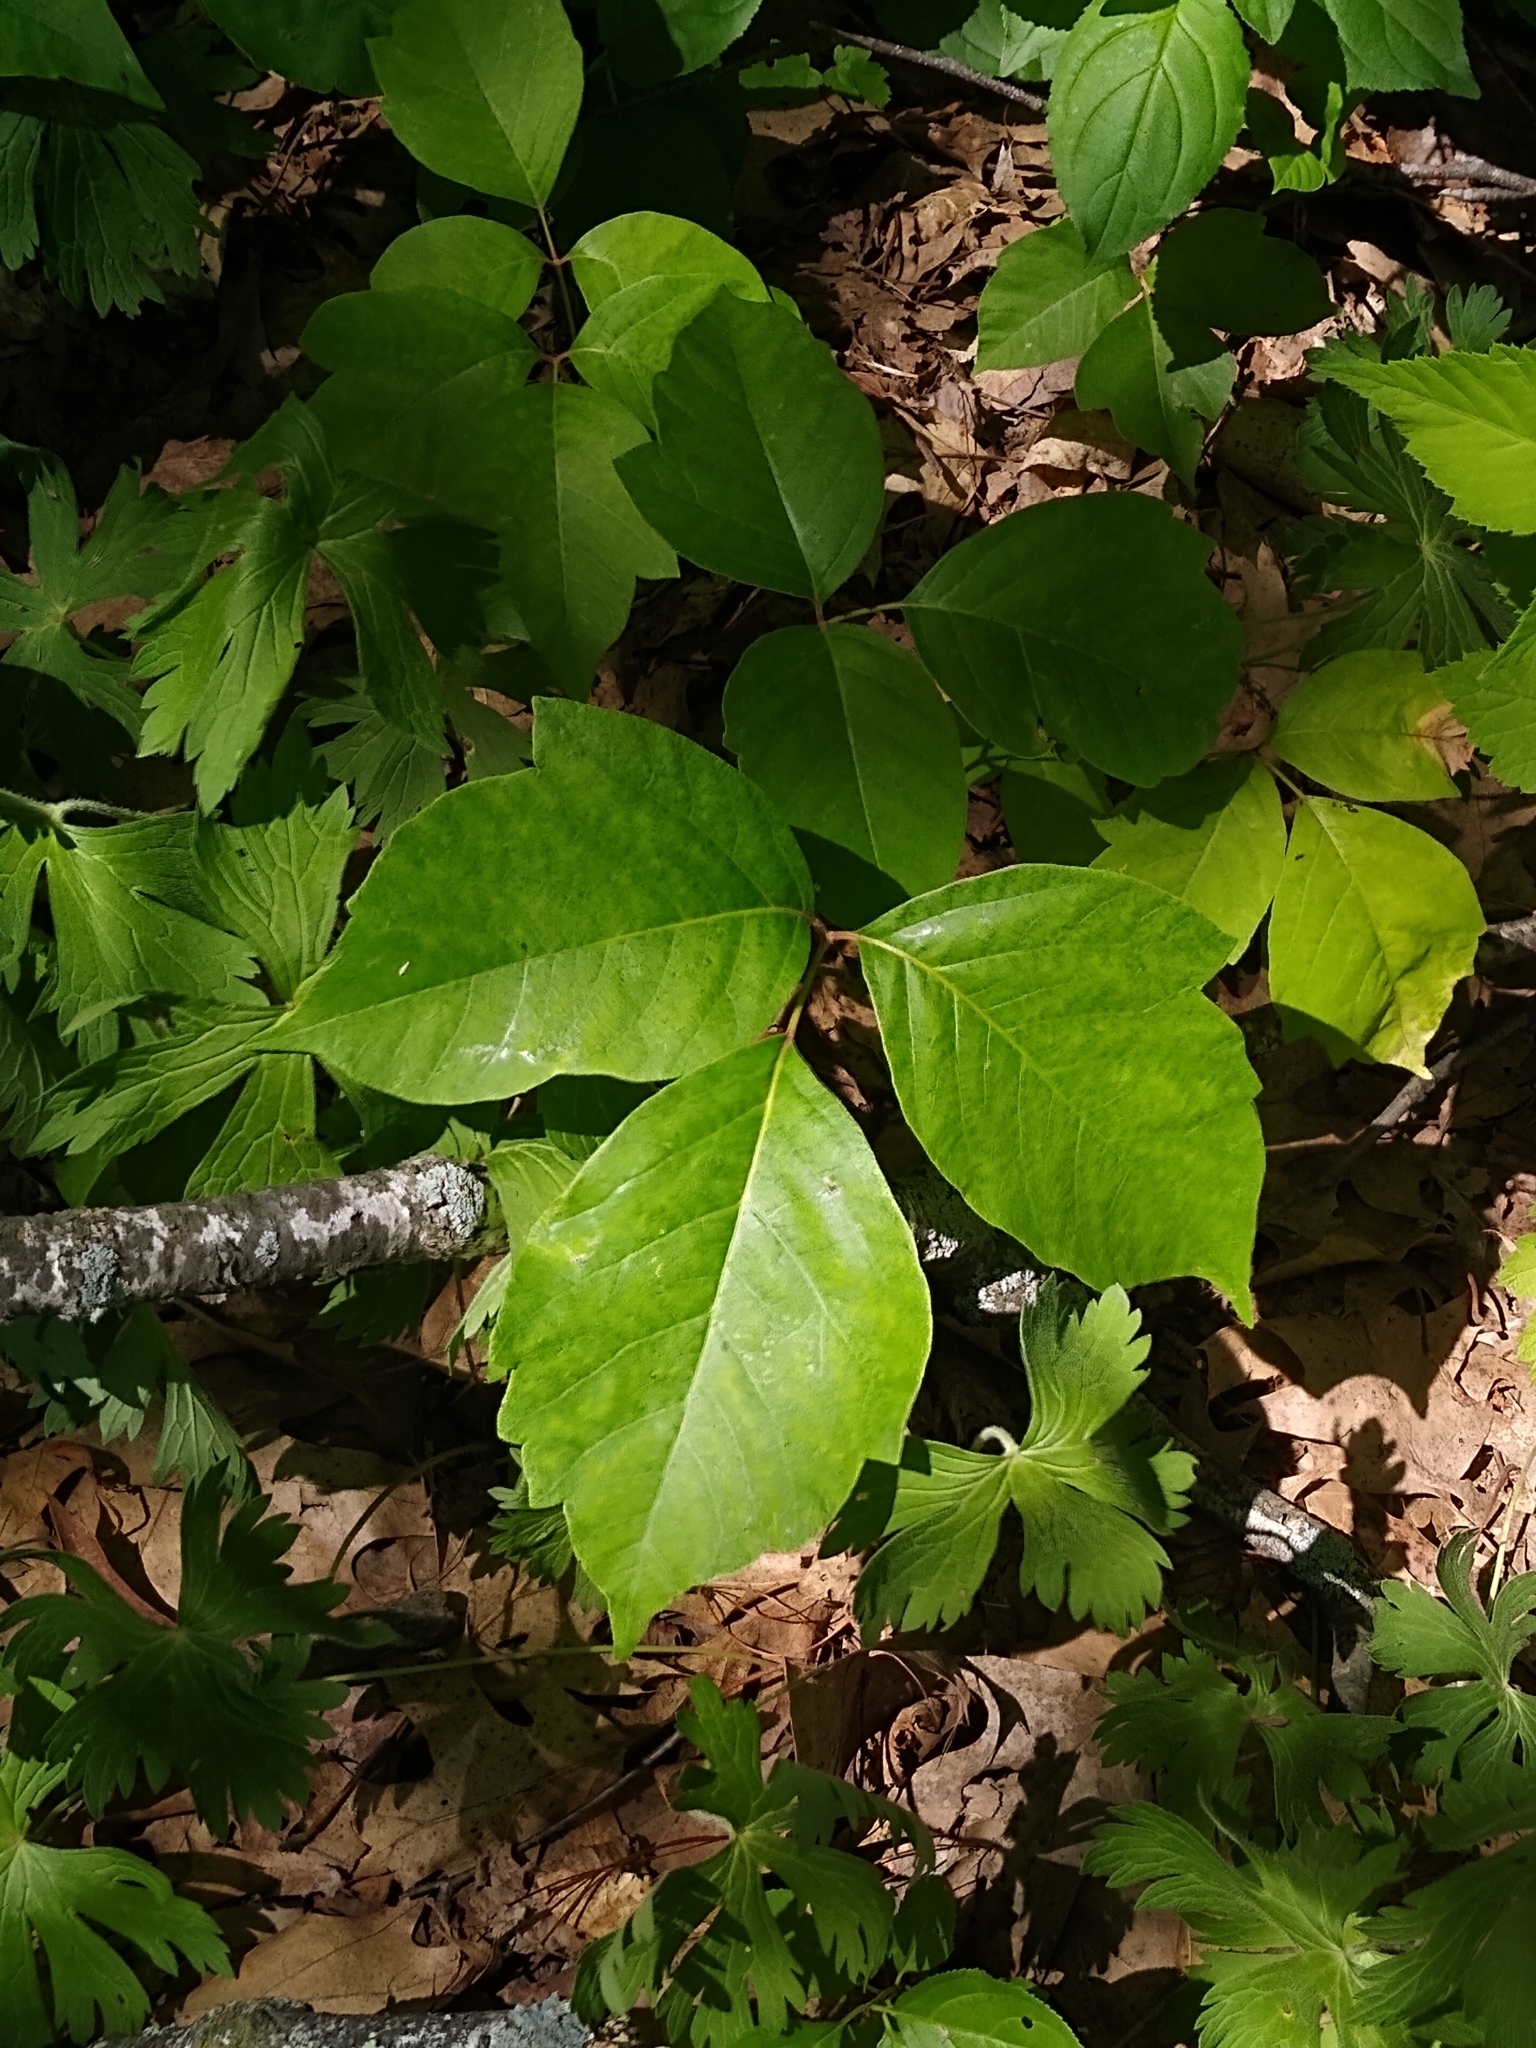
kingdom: Plantae
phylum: Tracheophyta
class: Magnoliopsida
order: Sapindales
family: Anacardiaceae
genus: Toxicodendron
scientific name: Toxicodendron rydbergii
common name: Rydberg's poison-ivy
